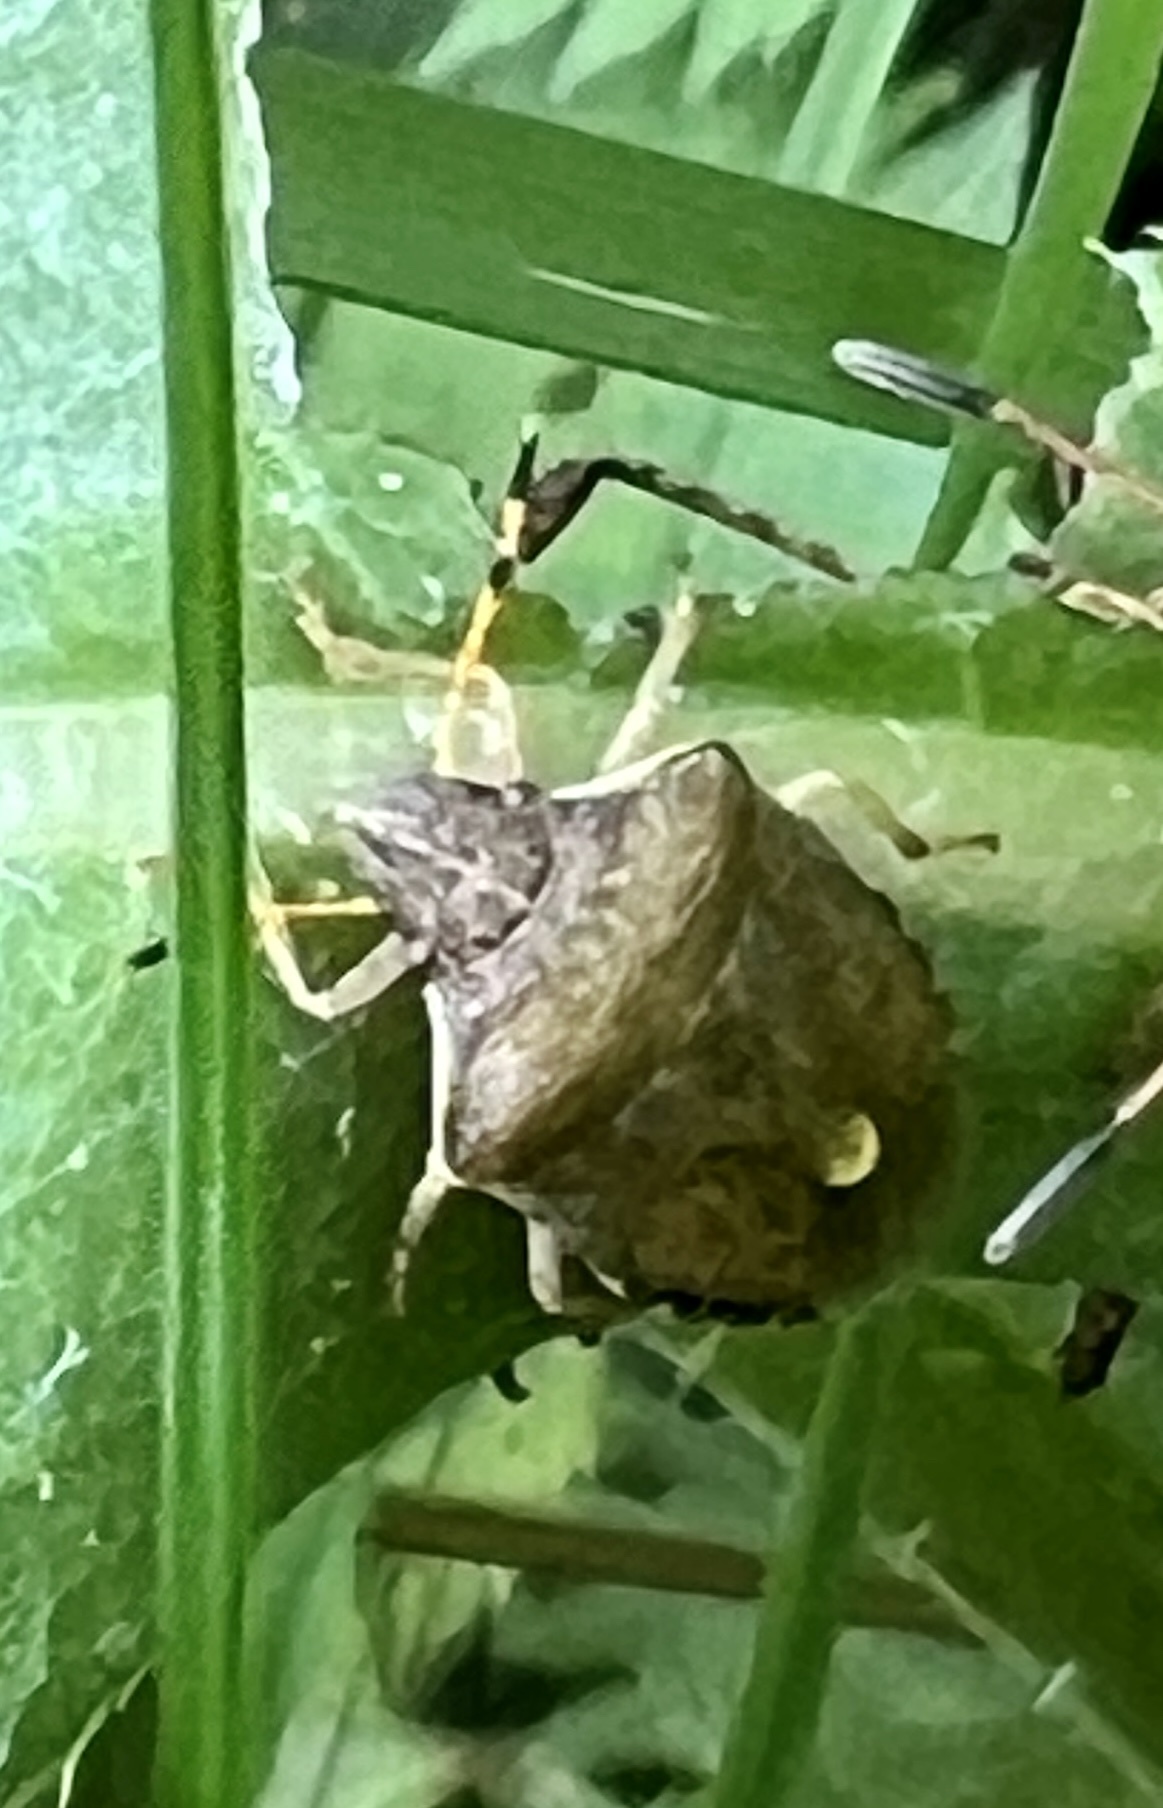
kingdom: Animalia
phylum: Arthropoda
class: Insecta
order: Hemiptera
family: Pentatomidae
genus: Holcostethus
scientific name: Holcostethus strictus
